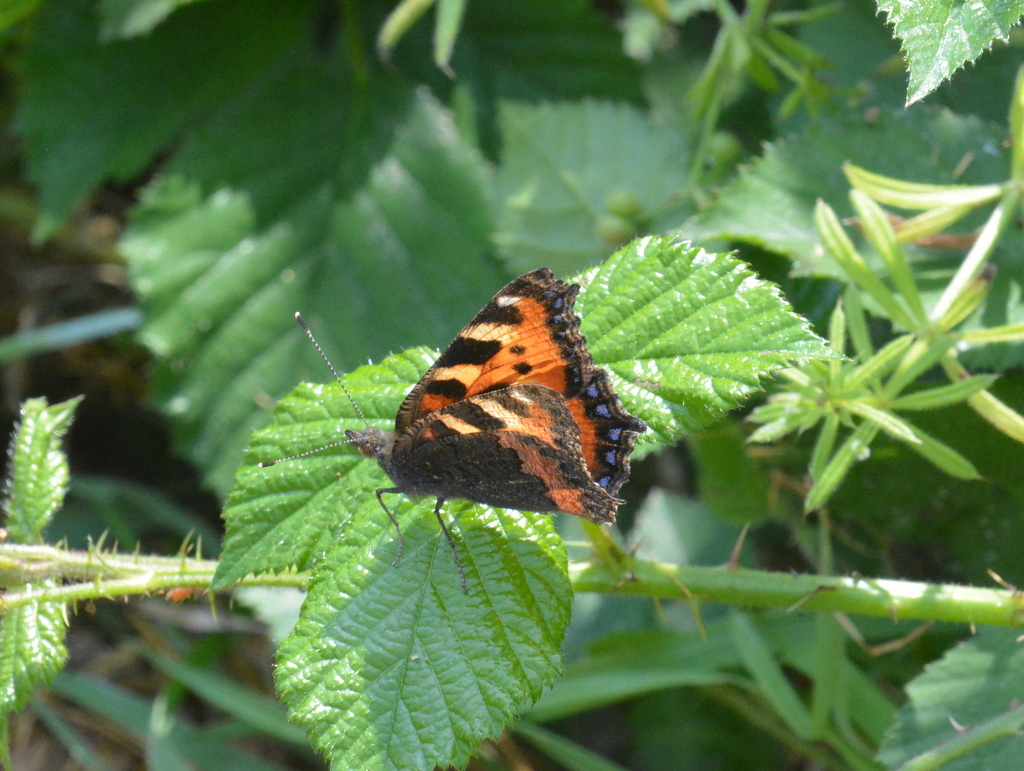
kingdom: Animalia
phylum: Arthropoda
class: Insecta
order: Lepidoptera
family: Nymphalidae
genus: Aglais
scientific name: Aglais urticae
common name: Small tortoiseshell
